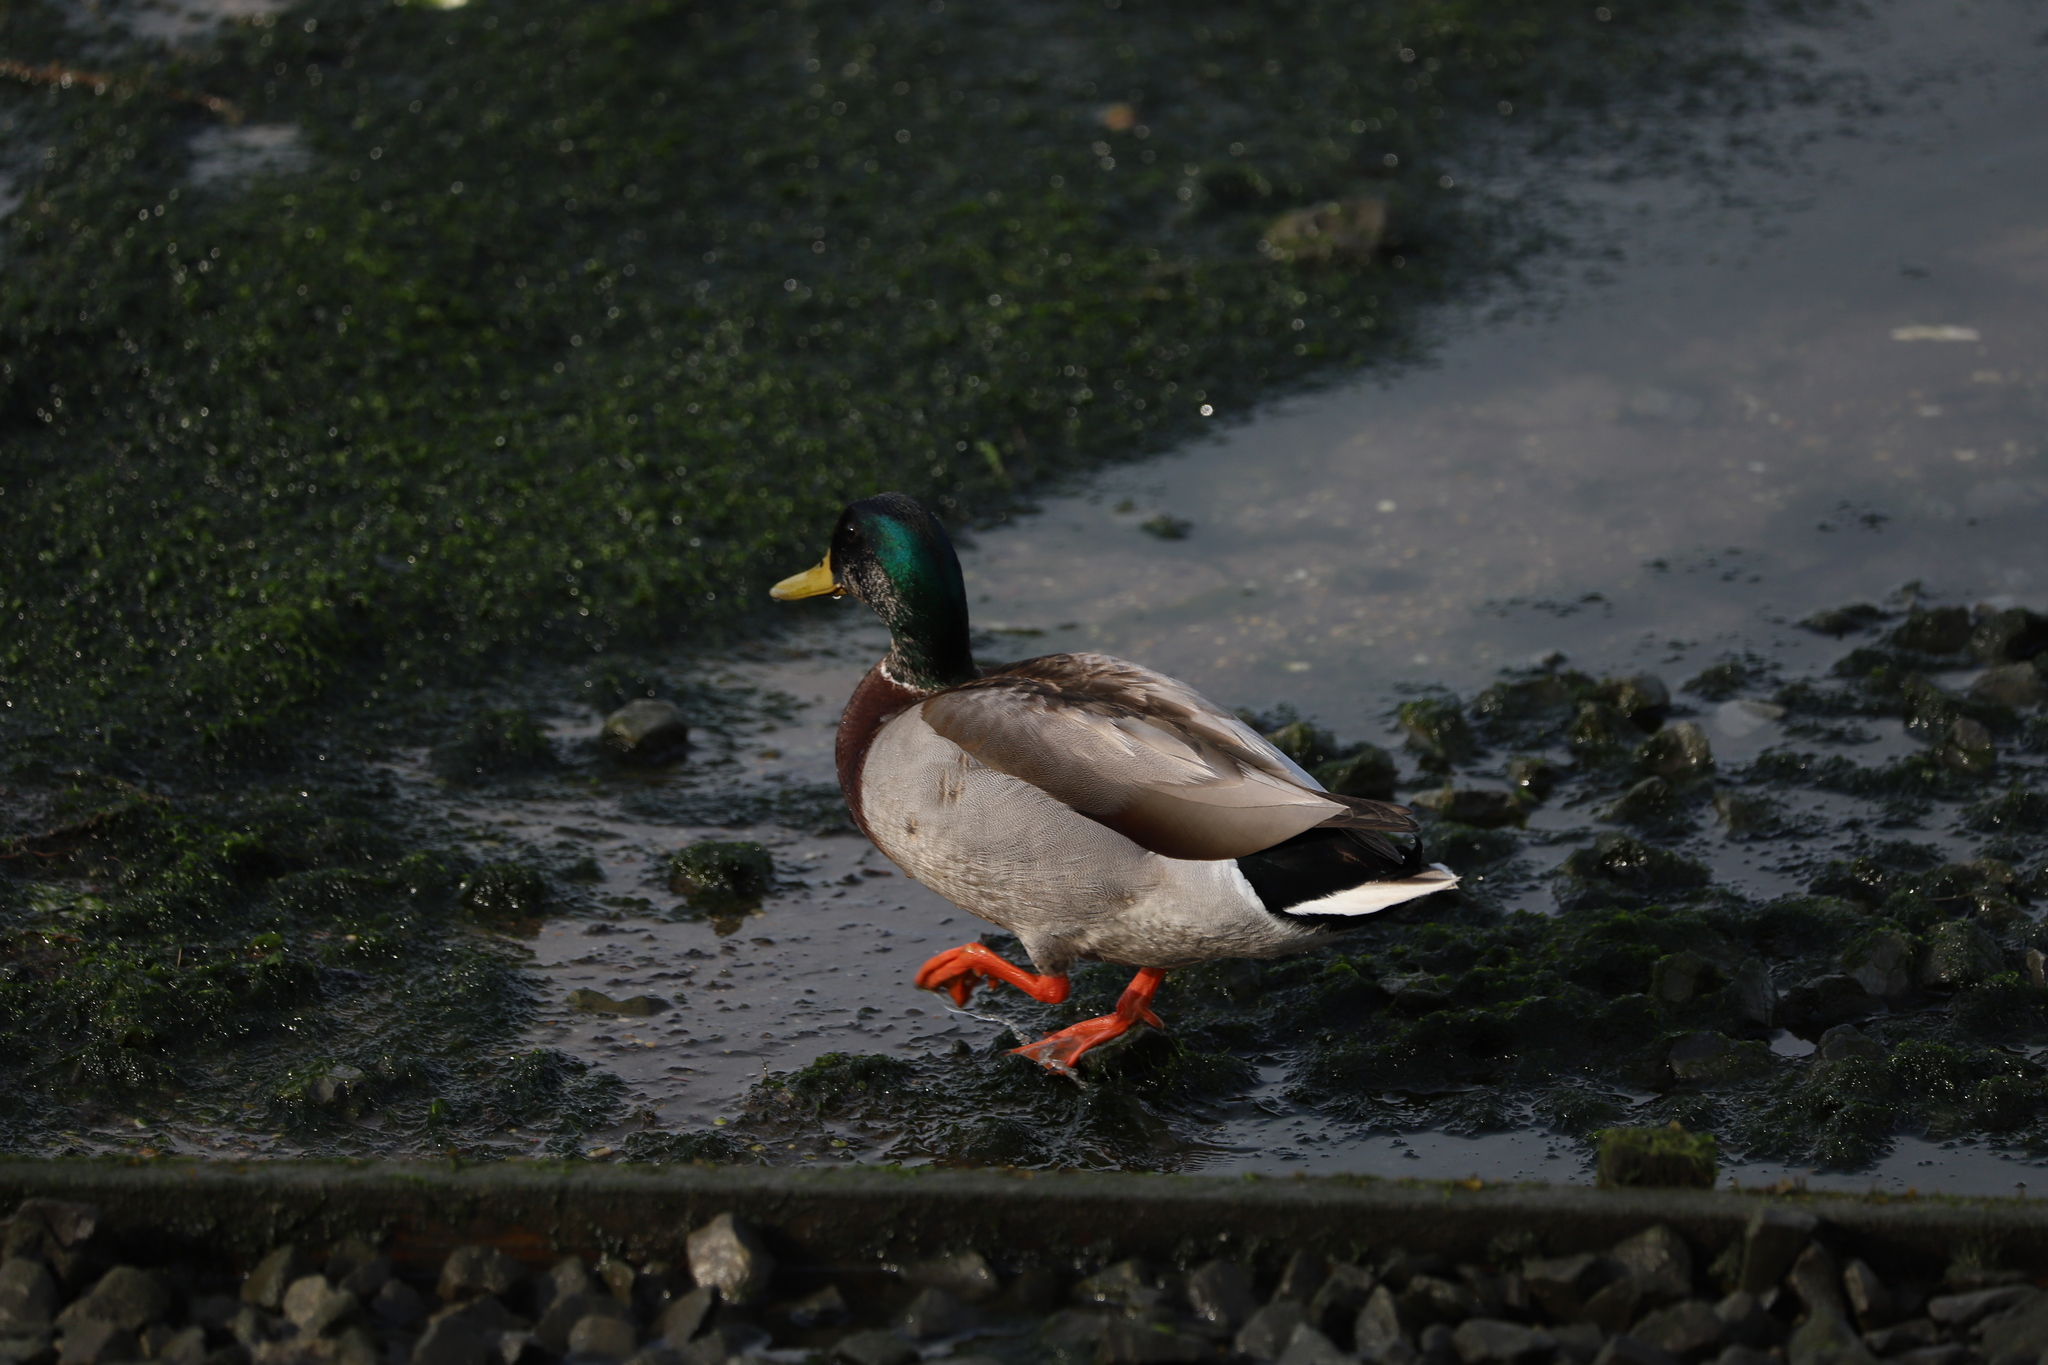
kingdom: Animalia
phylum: Chordata
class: Aves
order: Anseriformes
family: Anatidae
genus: Anas
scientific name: Anas platyrhynchos
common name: Mallard
